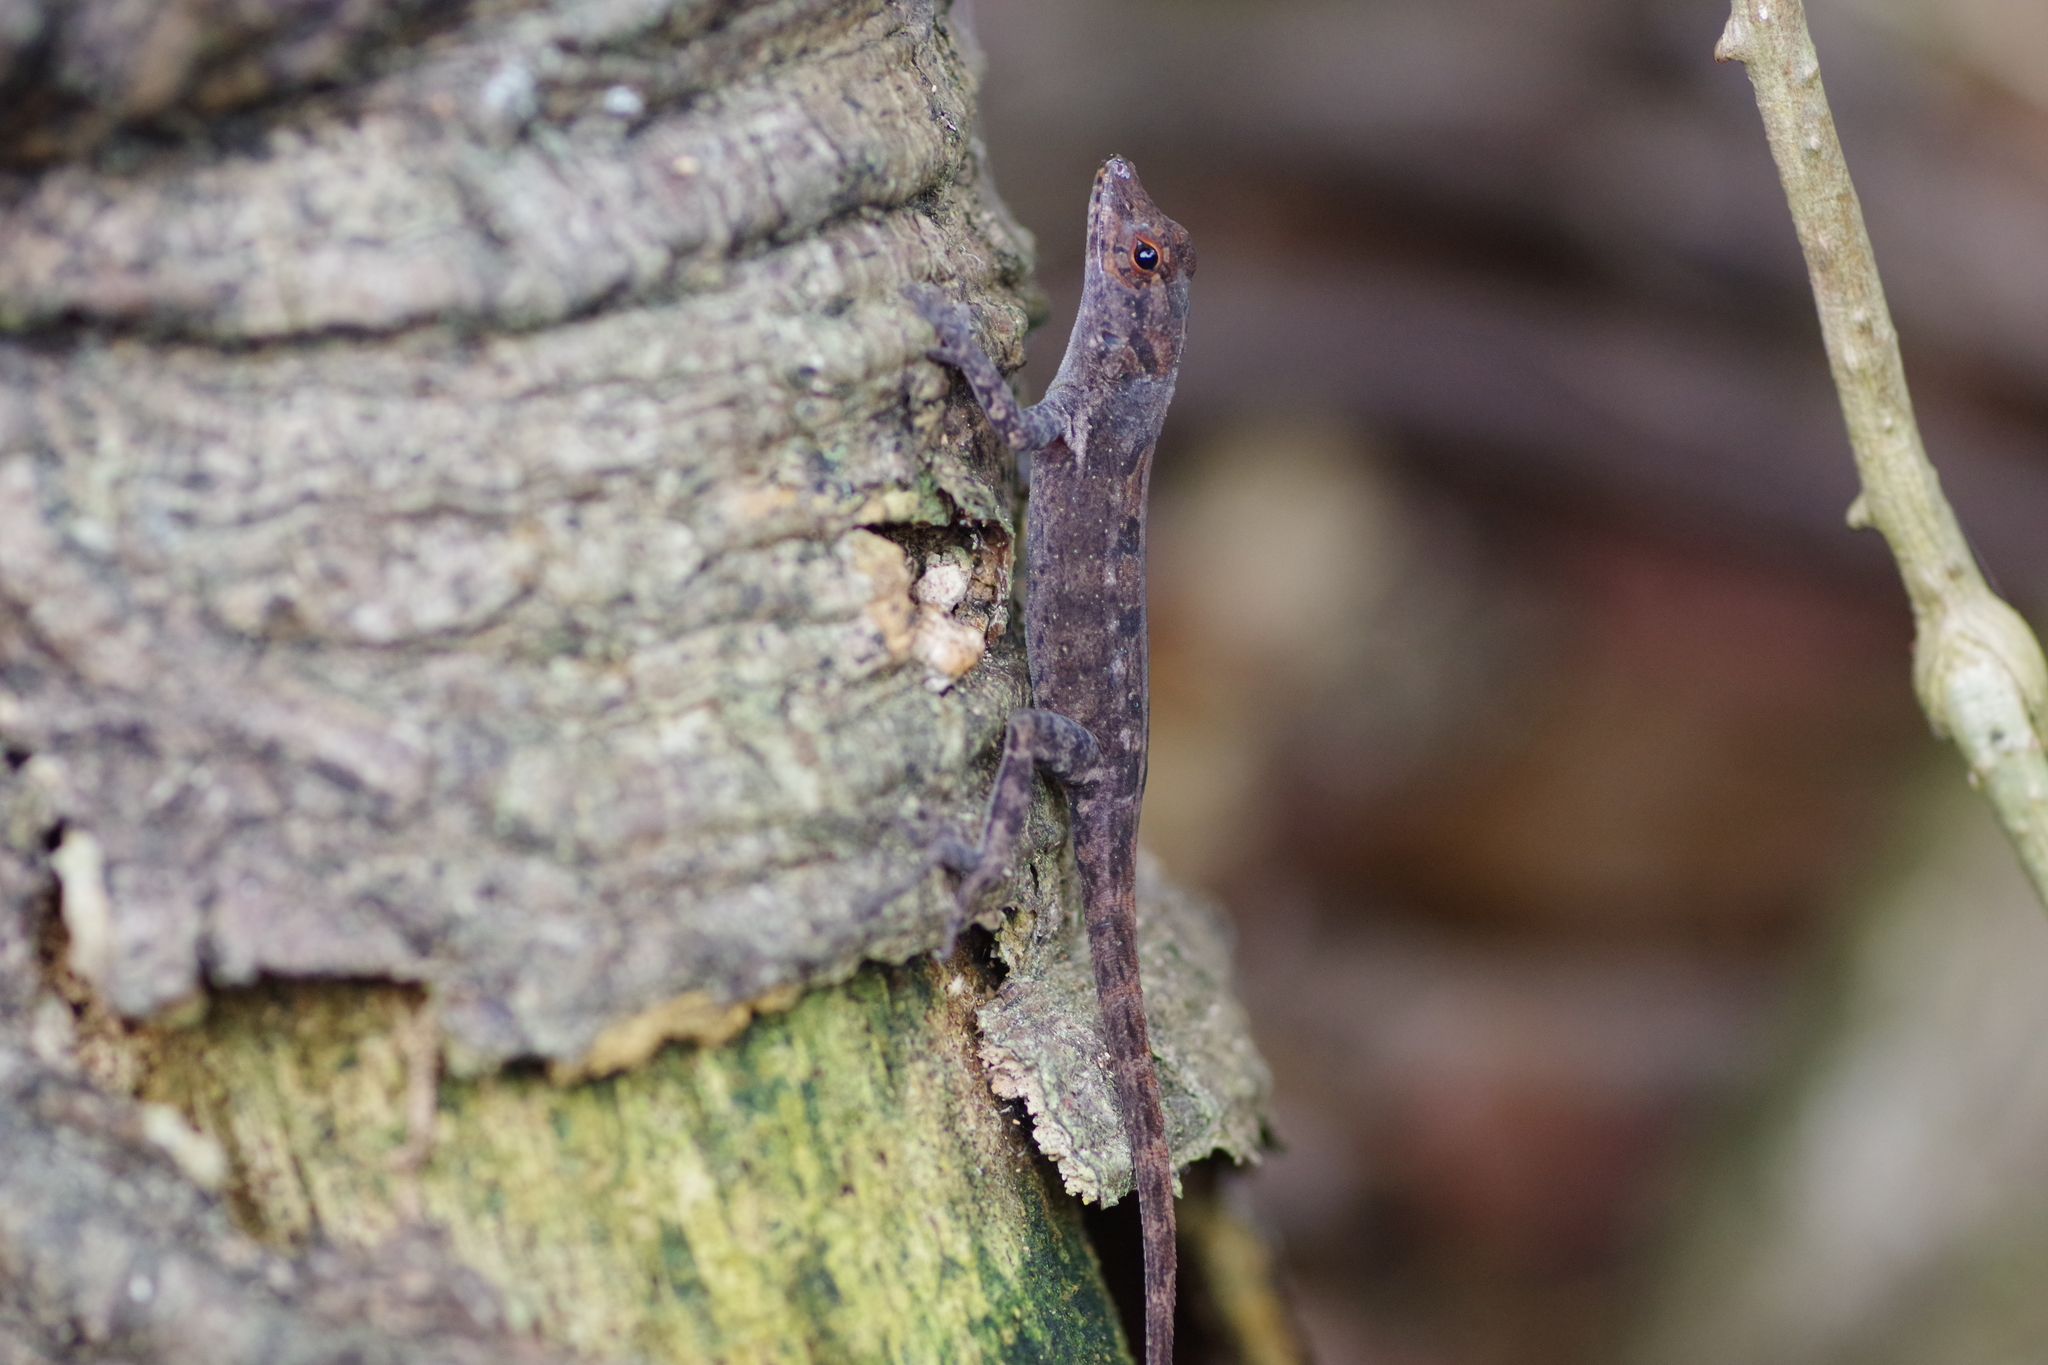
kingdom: Animalia
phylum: Chordata
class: Squamata
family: Dactyloidae
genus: Anolis
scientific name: Anolis humilis
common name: Humble anole
